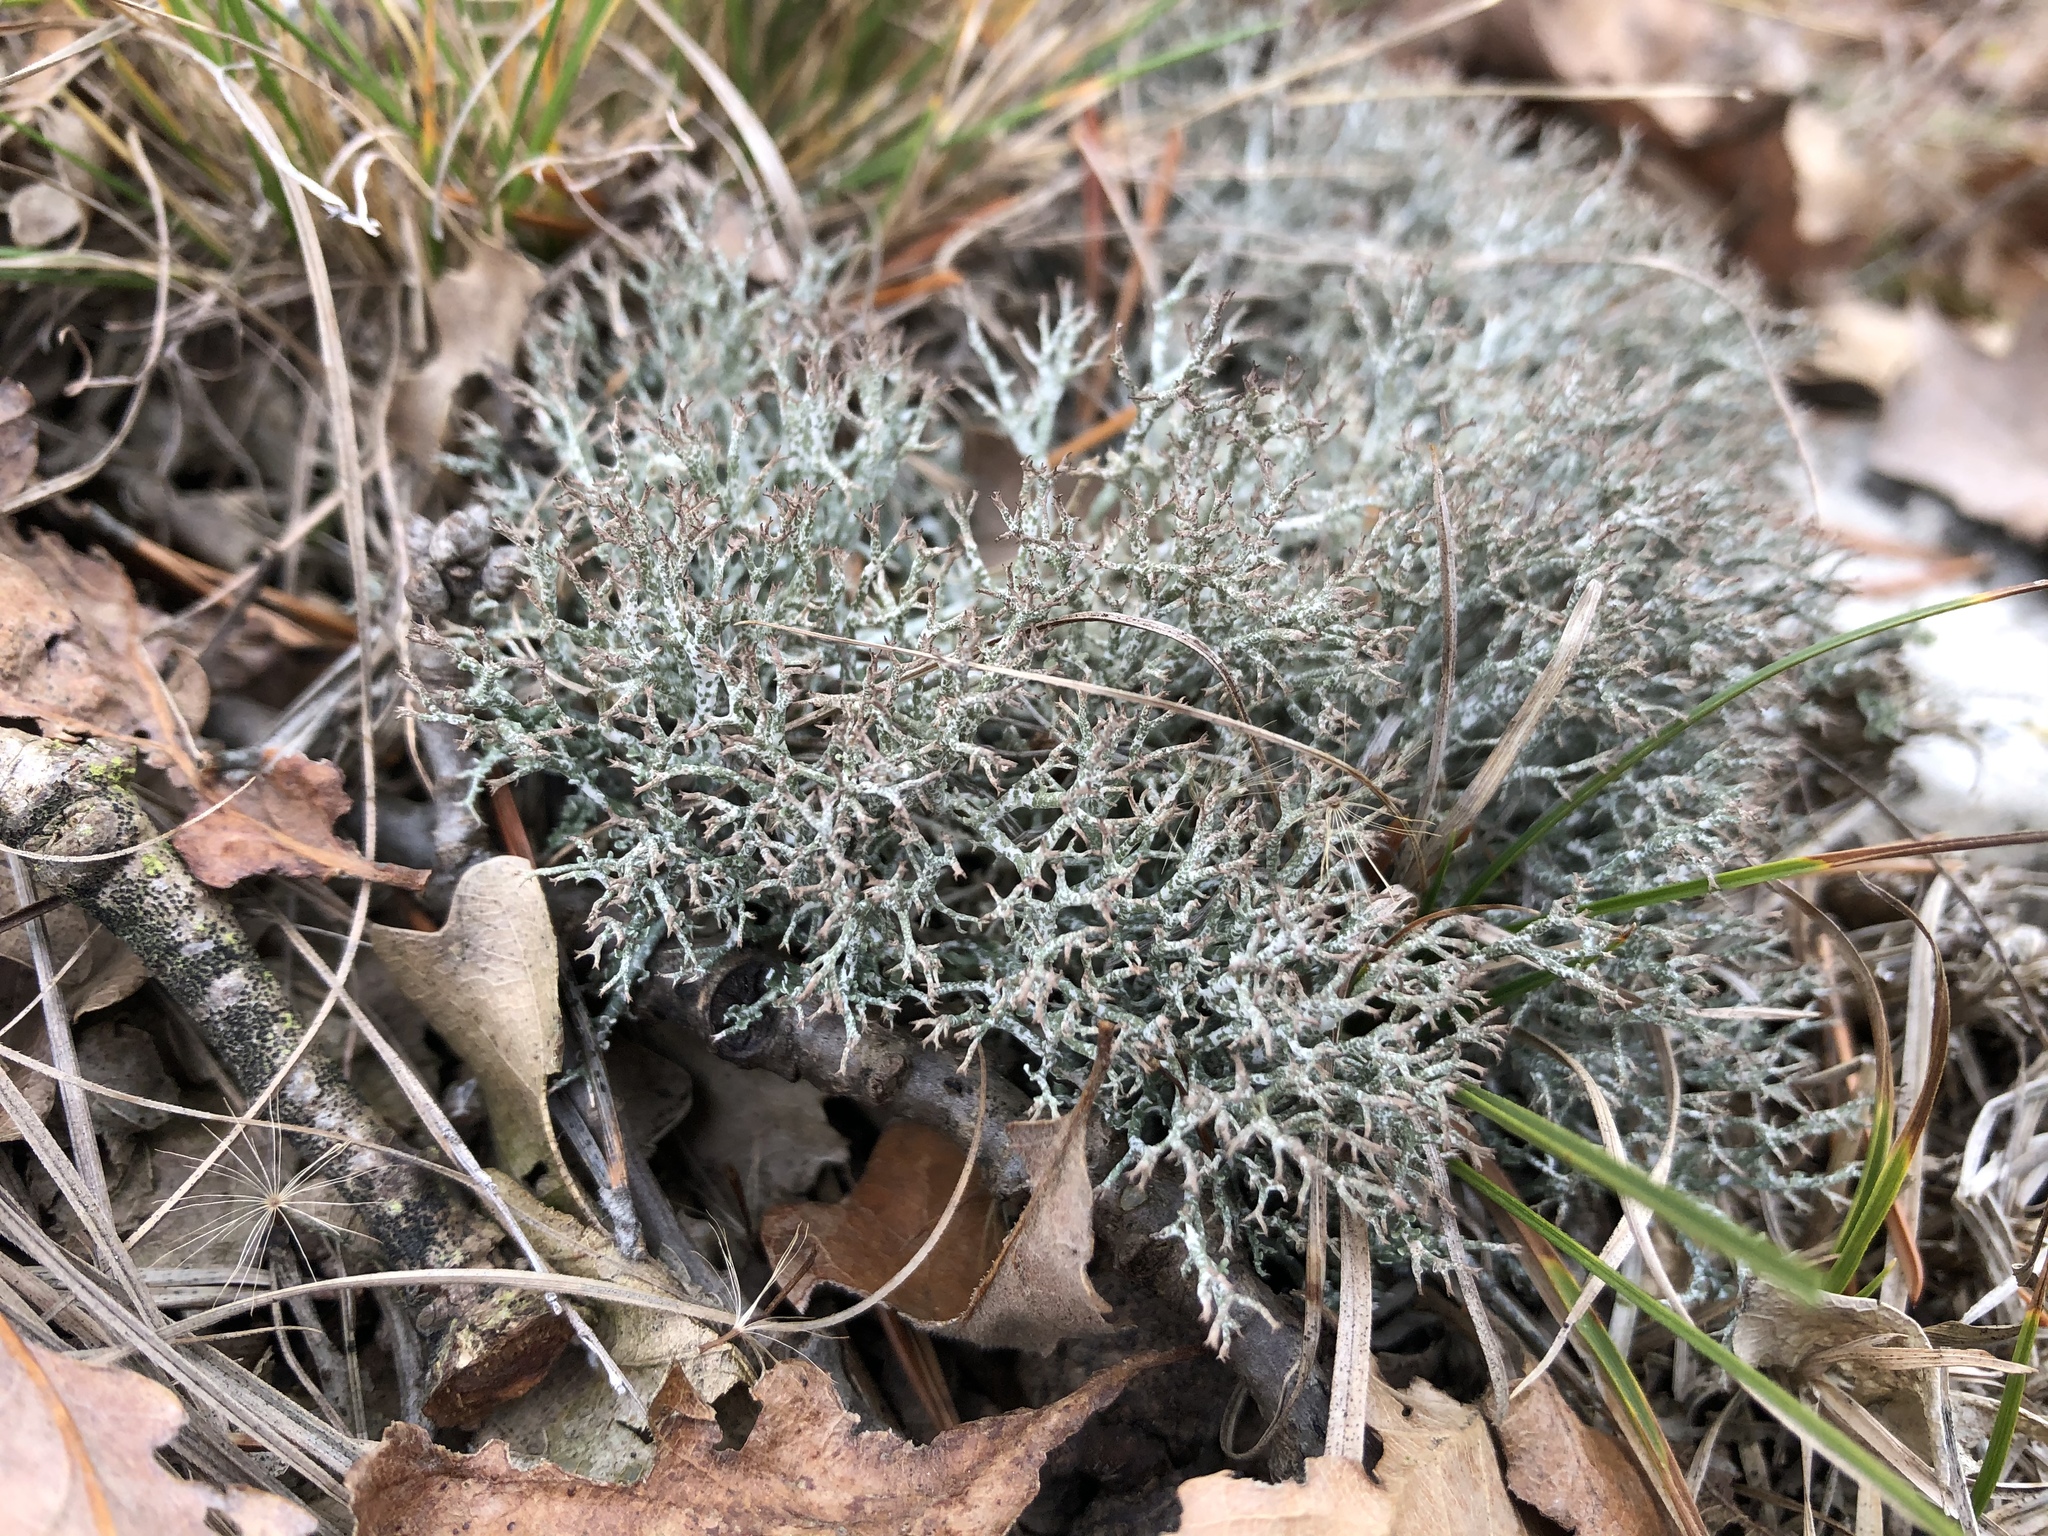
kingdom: Fungi
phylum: Ascomycota
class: Lecanoromycetes
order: Lecanorales
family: Cladoniaceae
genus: Cladonia
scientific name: Cladonia rangiformis
